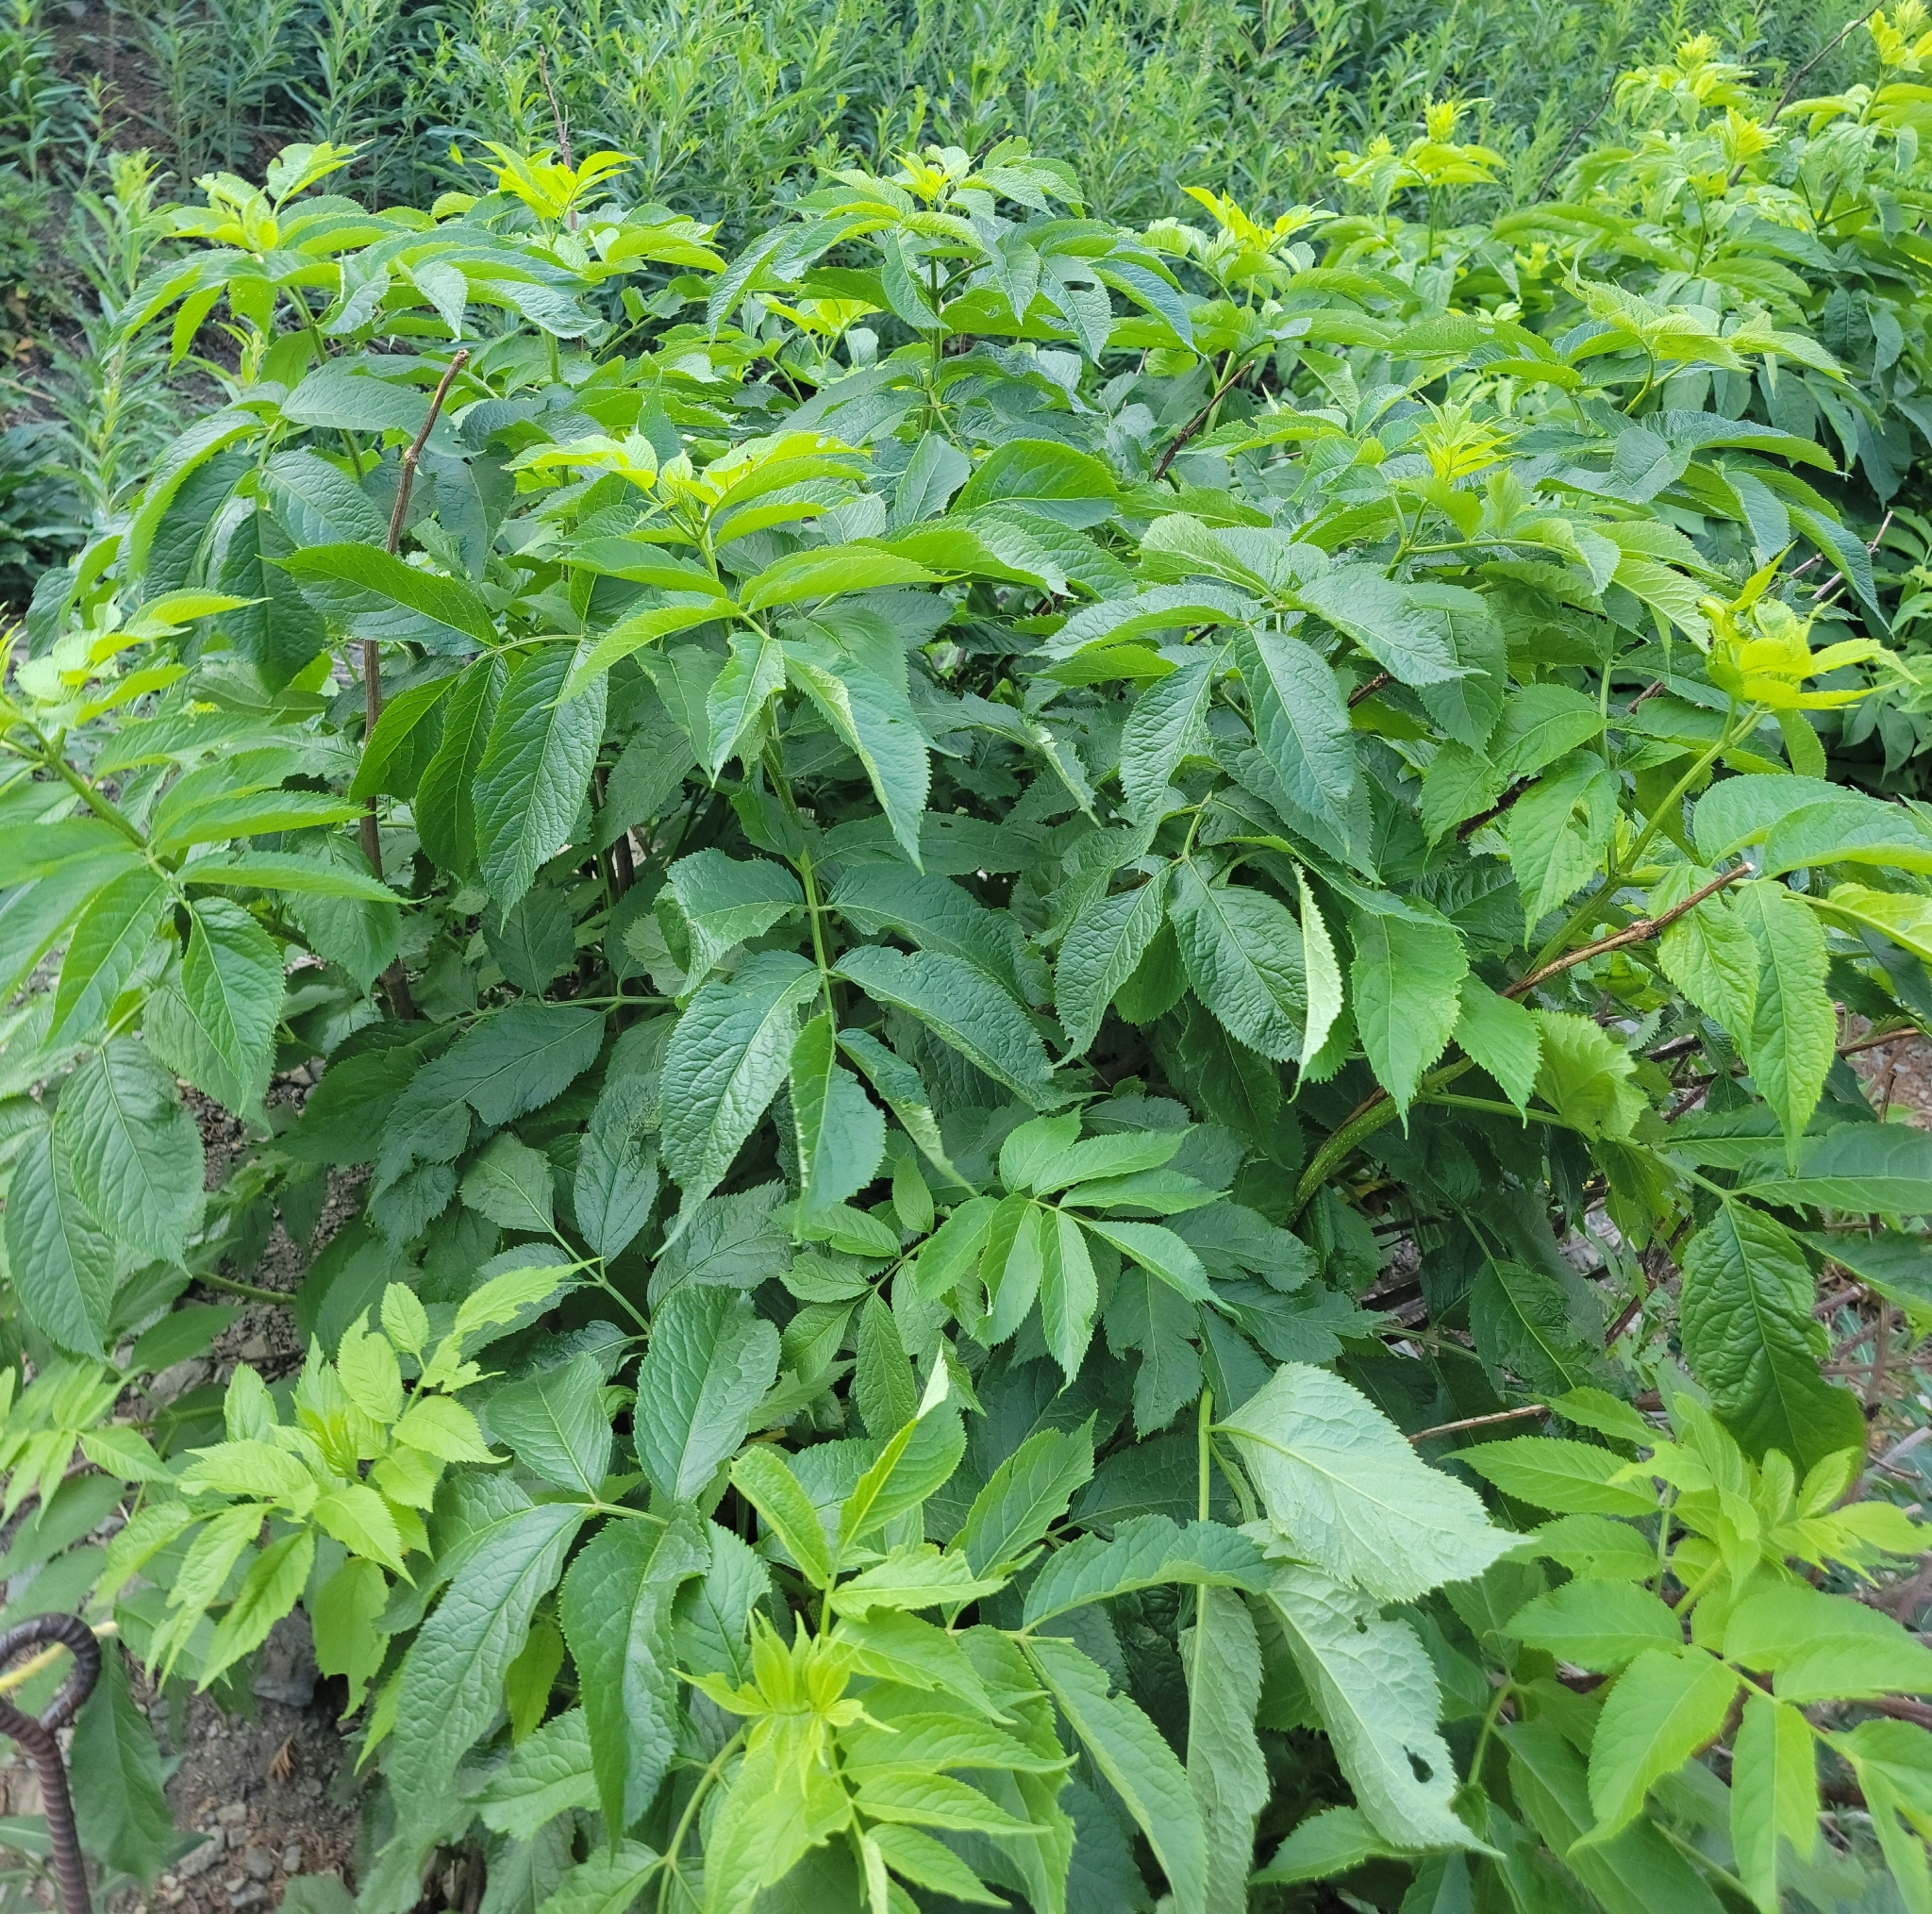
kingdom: Plantae
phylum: Tracheophyta
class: Magnoliopsida
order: Dipsacales
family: Viburnaceae
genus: Sambucus
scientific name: Sambucus racemosa
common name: Red-berried elder
